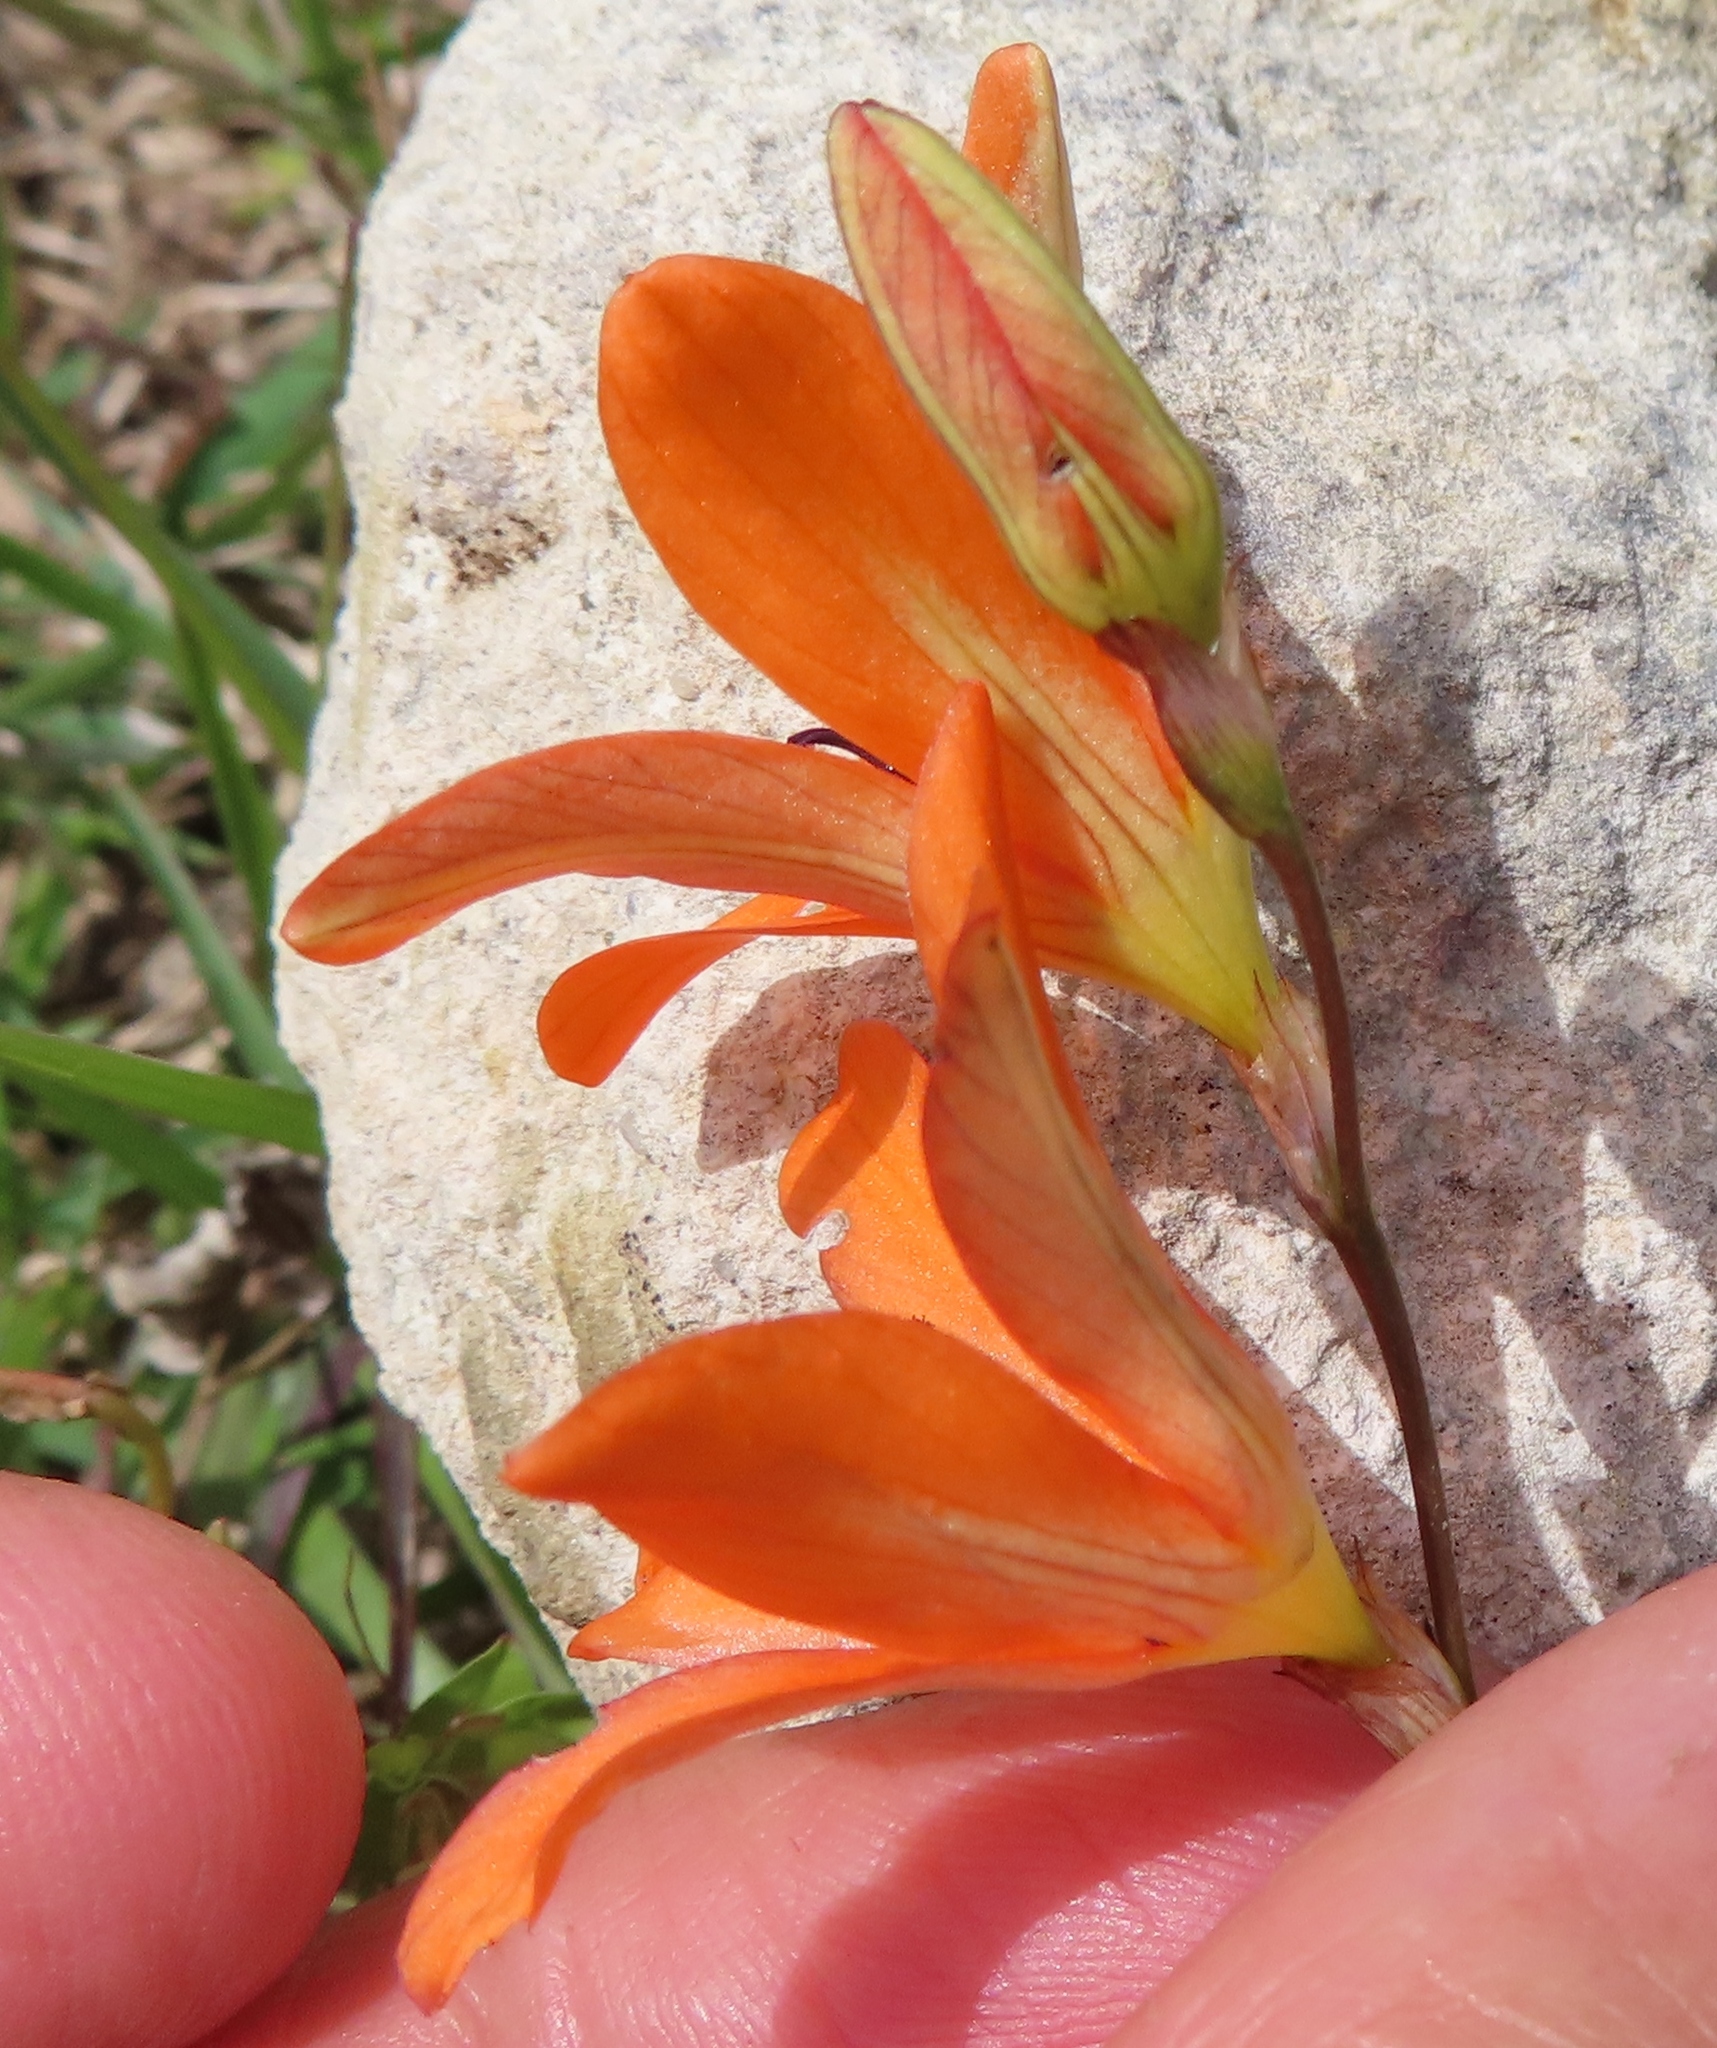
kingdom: Plantae
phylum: Tracheophyta
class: Liliopsida
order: Asparagales
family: Iridaceae
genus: Tritonia
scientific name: Tritonia deusta
